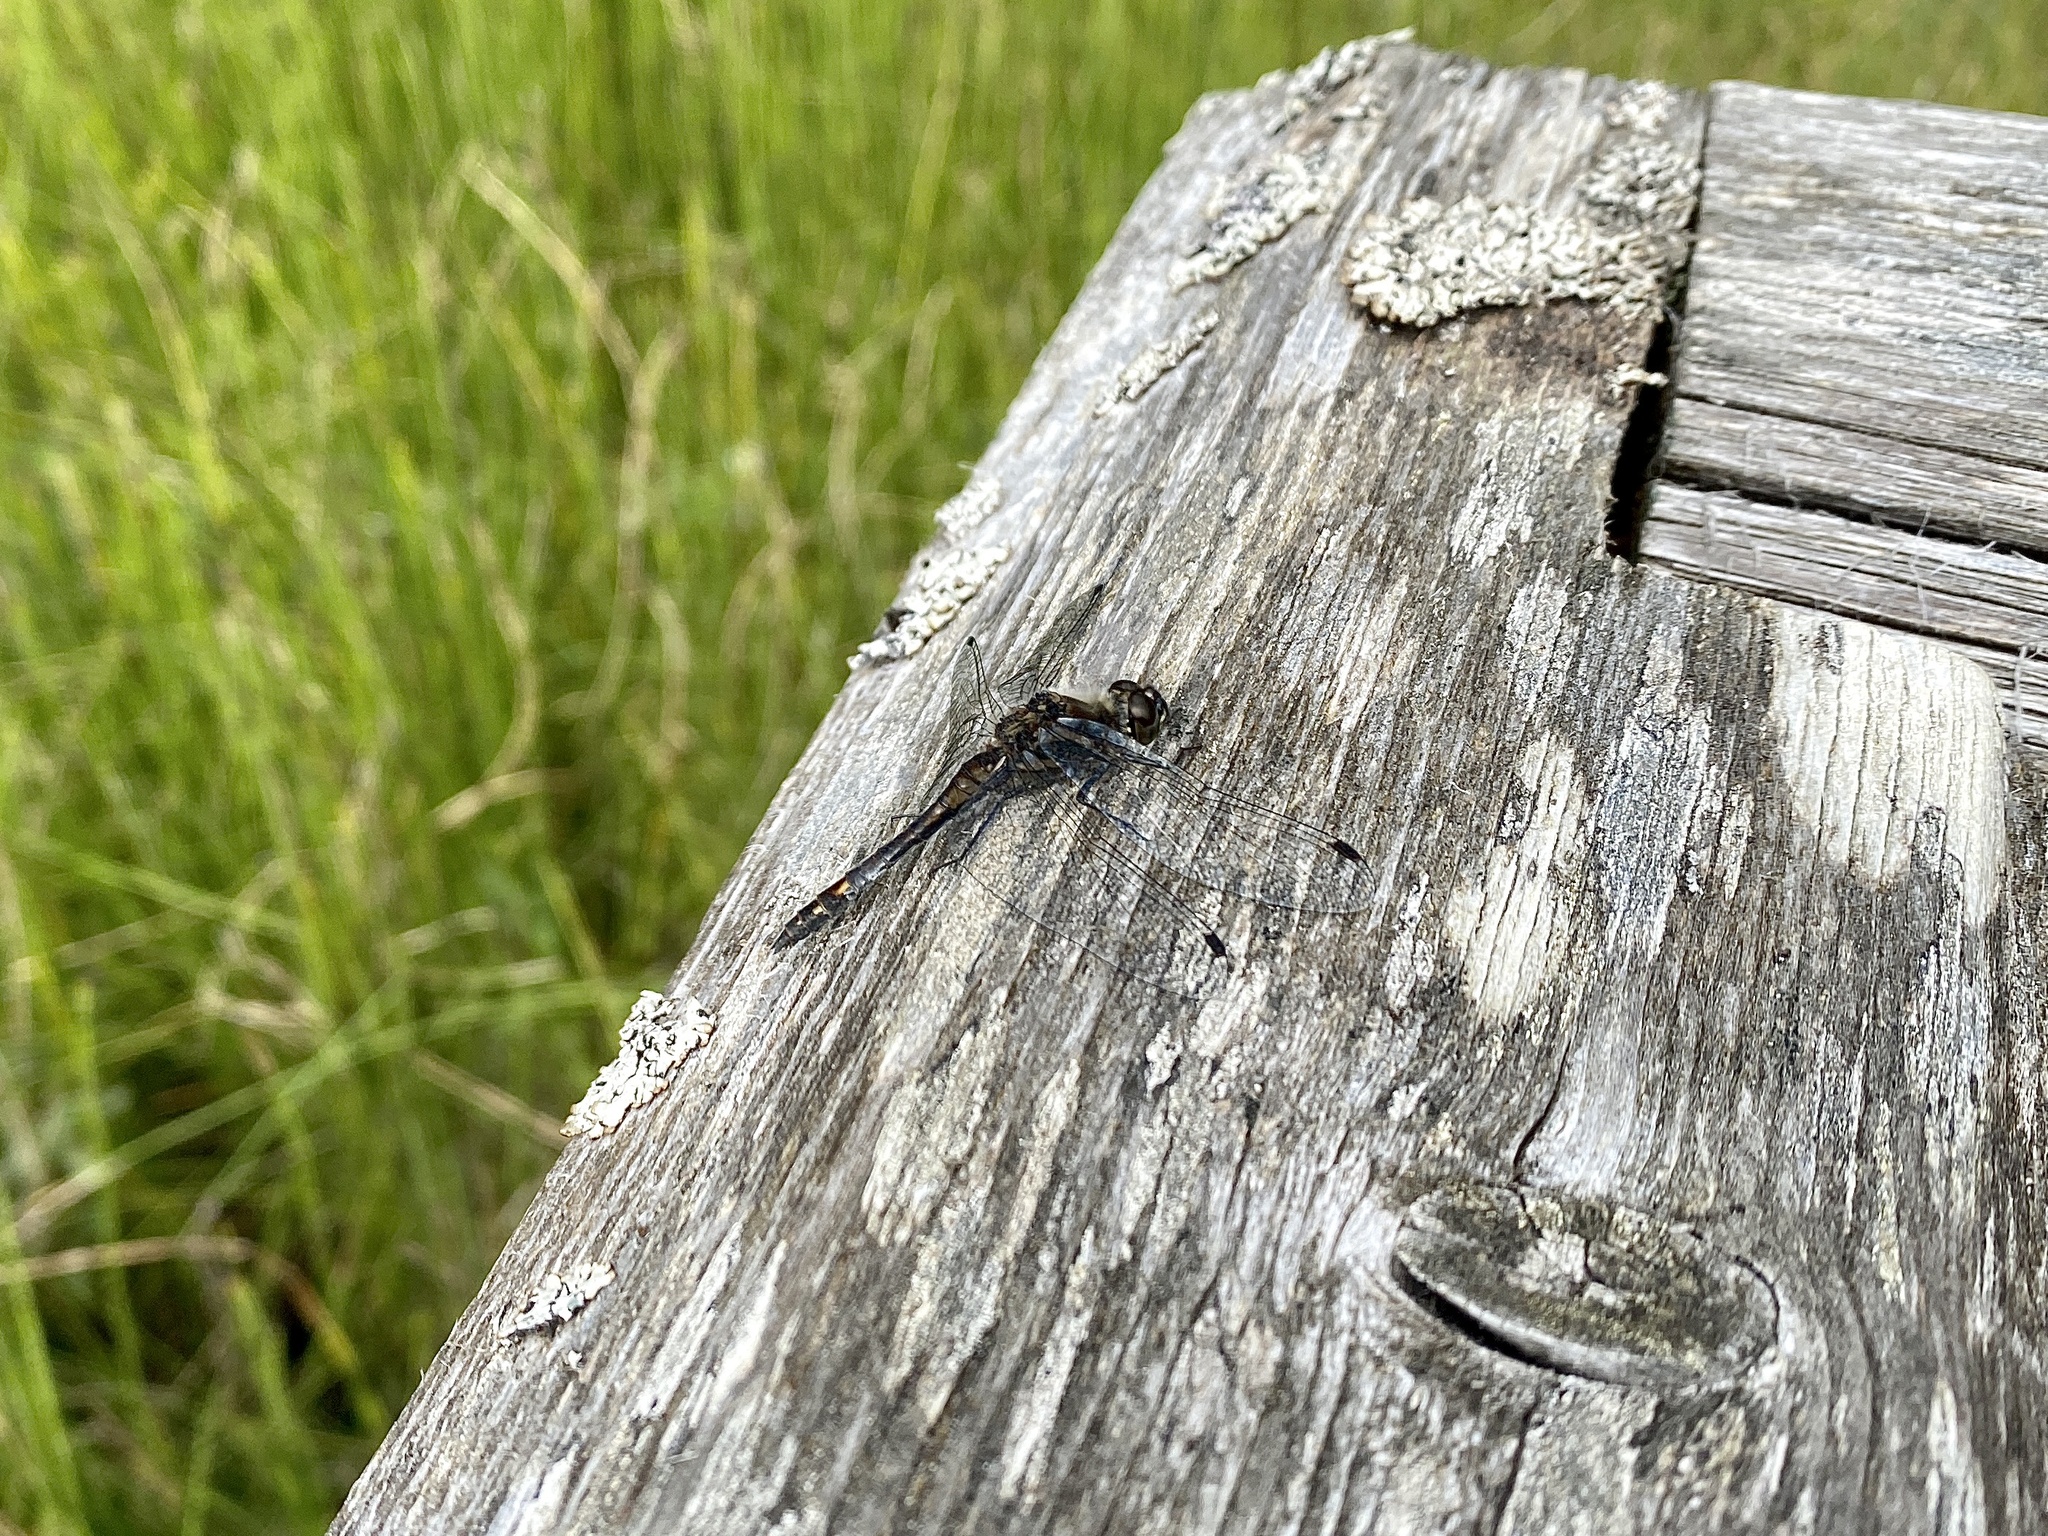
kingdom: Animalia
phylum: Arthropoda
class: Insecta
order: Odonata
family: Libellulidae
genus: Sympetrum
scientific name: Sympetrum danae
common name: Black darter
